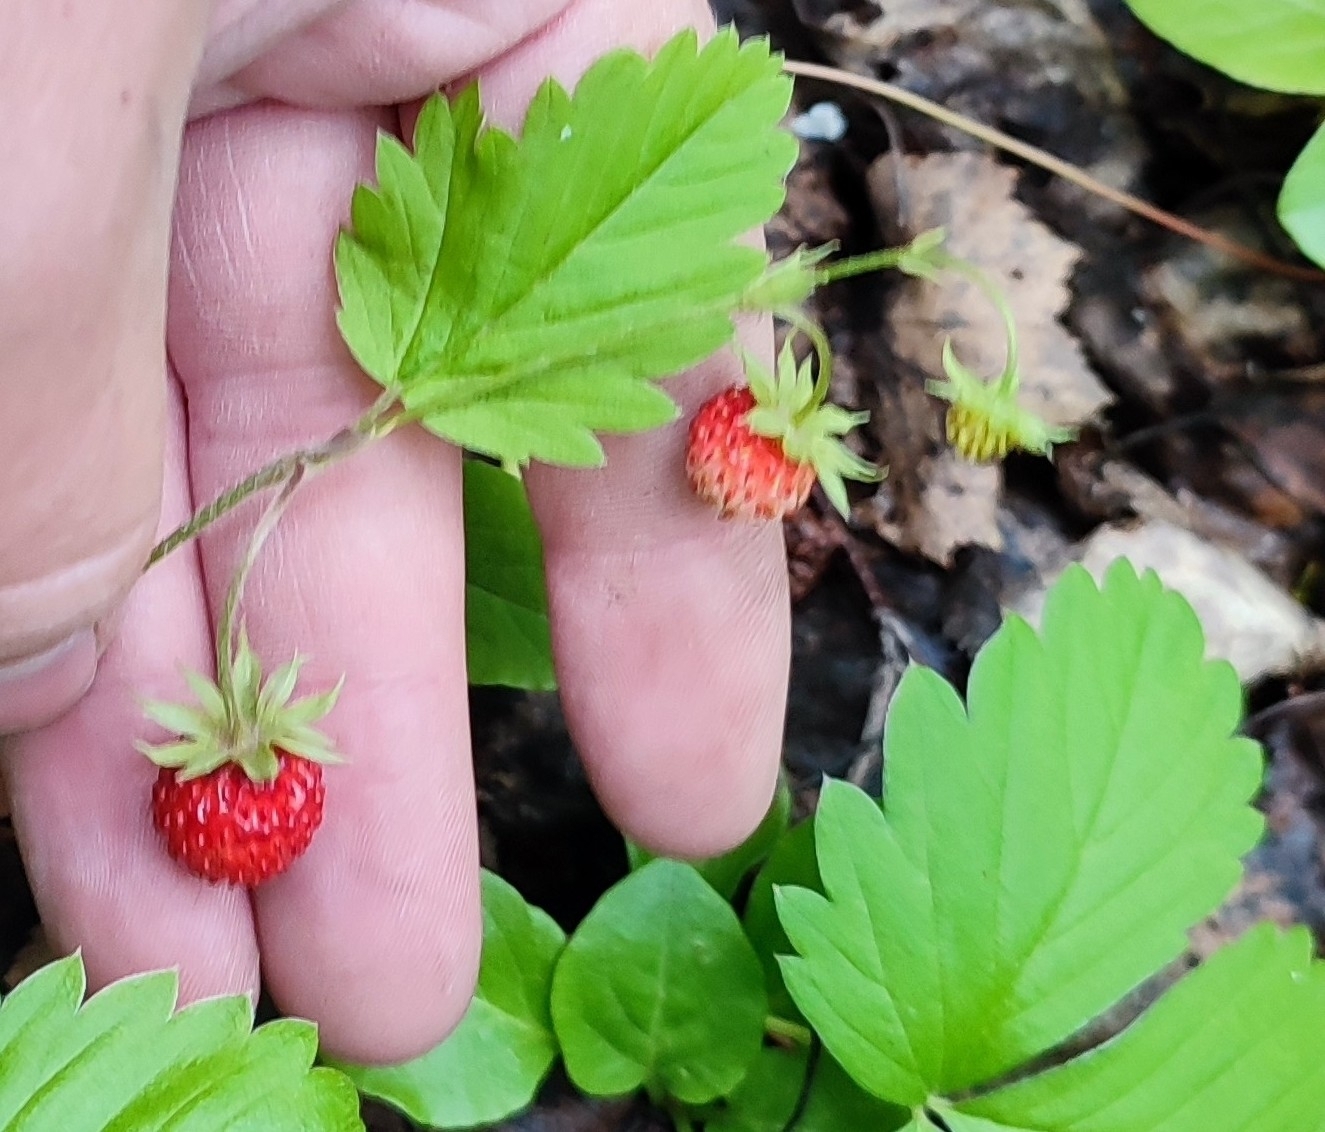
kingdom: Plantae
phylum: Tracheophyta
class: Magnoliopsida
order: Rosales
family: Rosaceae
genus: Fragaria
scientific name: Fragaria vesca
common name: Wild strawberry
